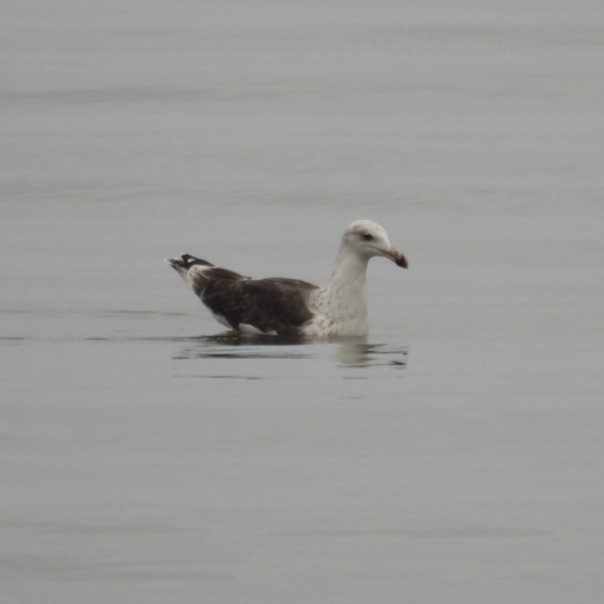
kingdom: Animalia
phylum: Chordata
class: Aves
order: Charadriiformes
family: Laridae
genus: Larus
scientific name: Larus marinus
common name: Great black-backed gull
